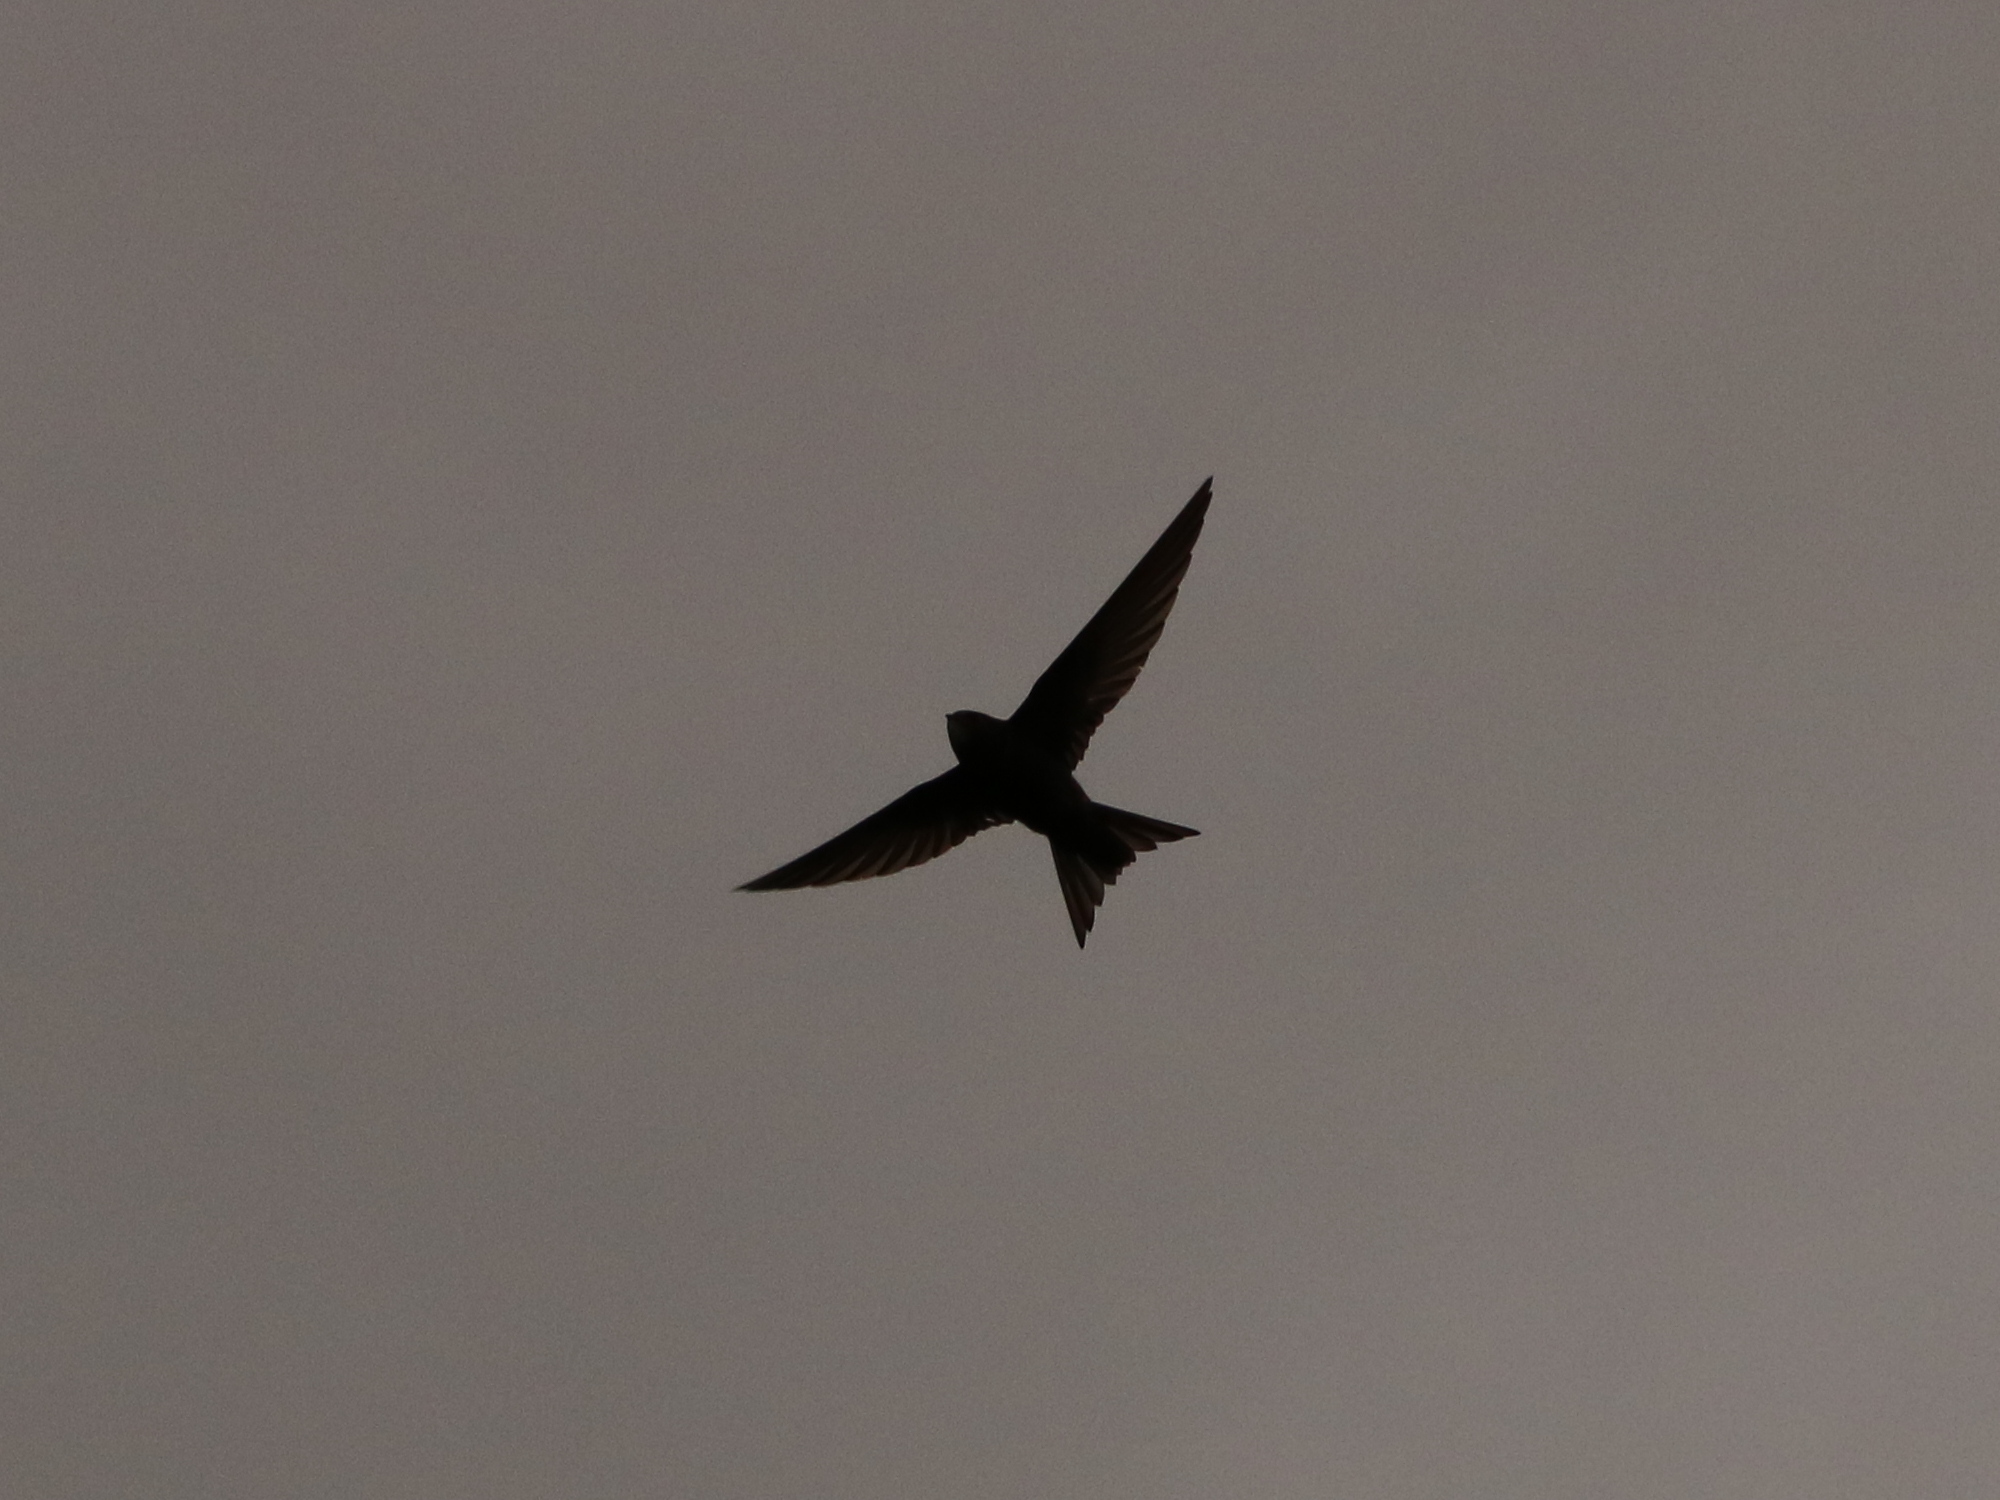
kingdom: Animalia
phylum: Chordata
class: Aves
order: Apodiformes
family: Apodidae
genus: Apus
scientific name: Apus apus
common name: Common swift
